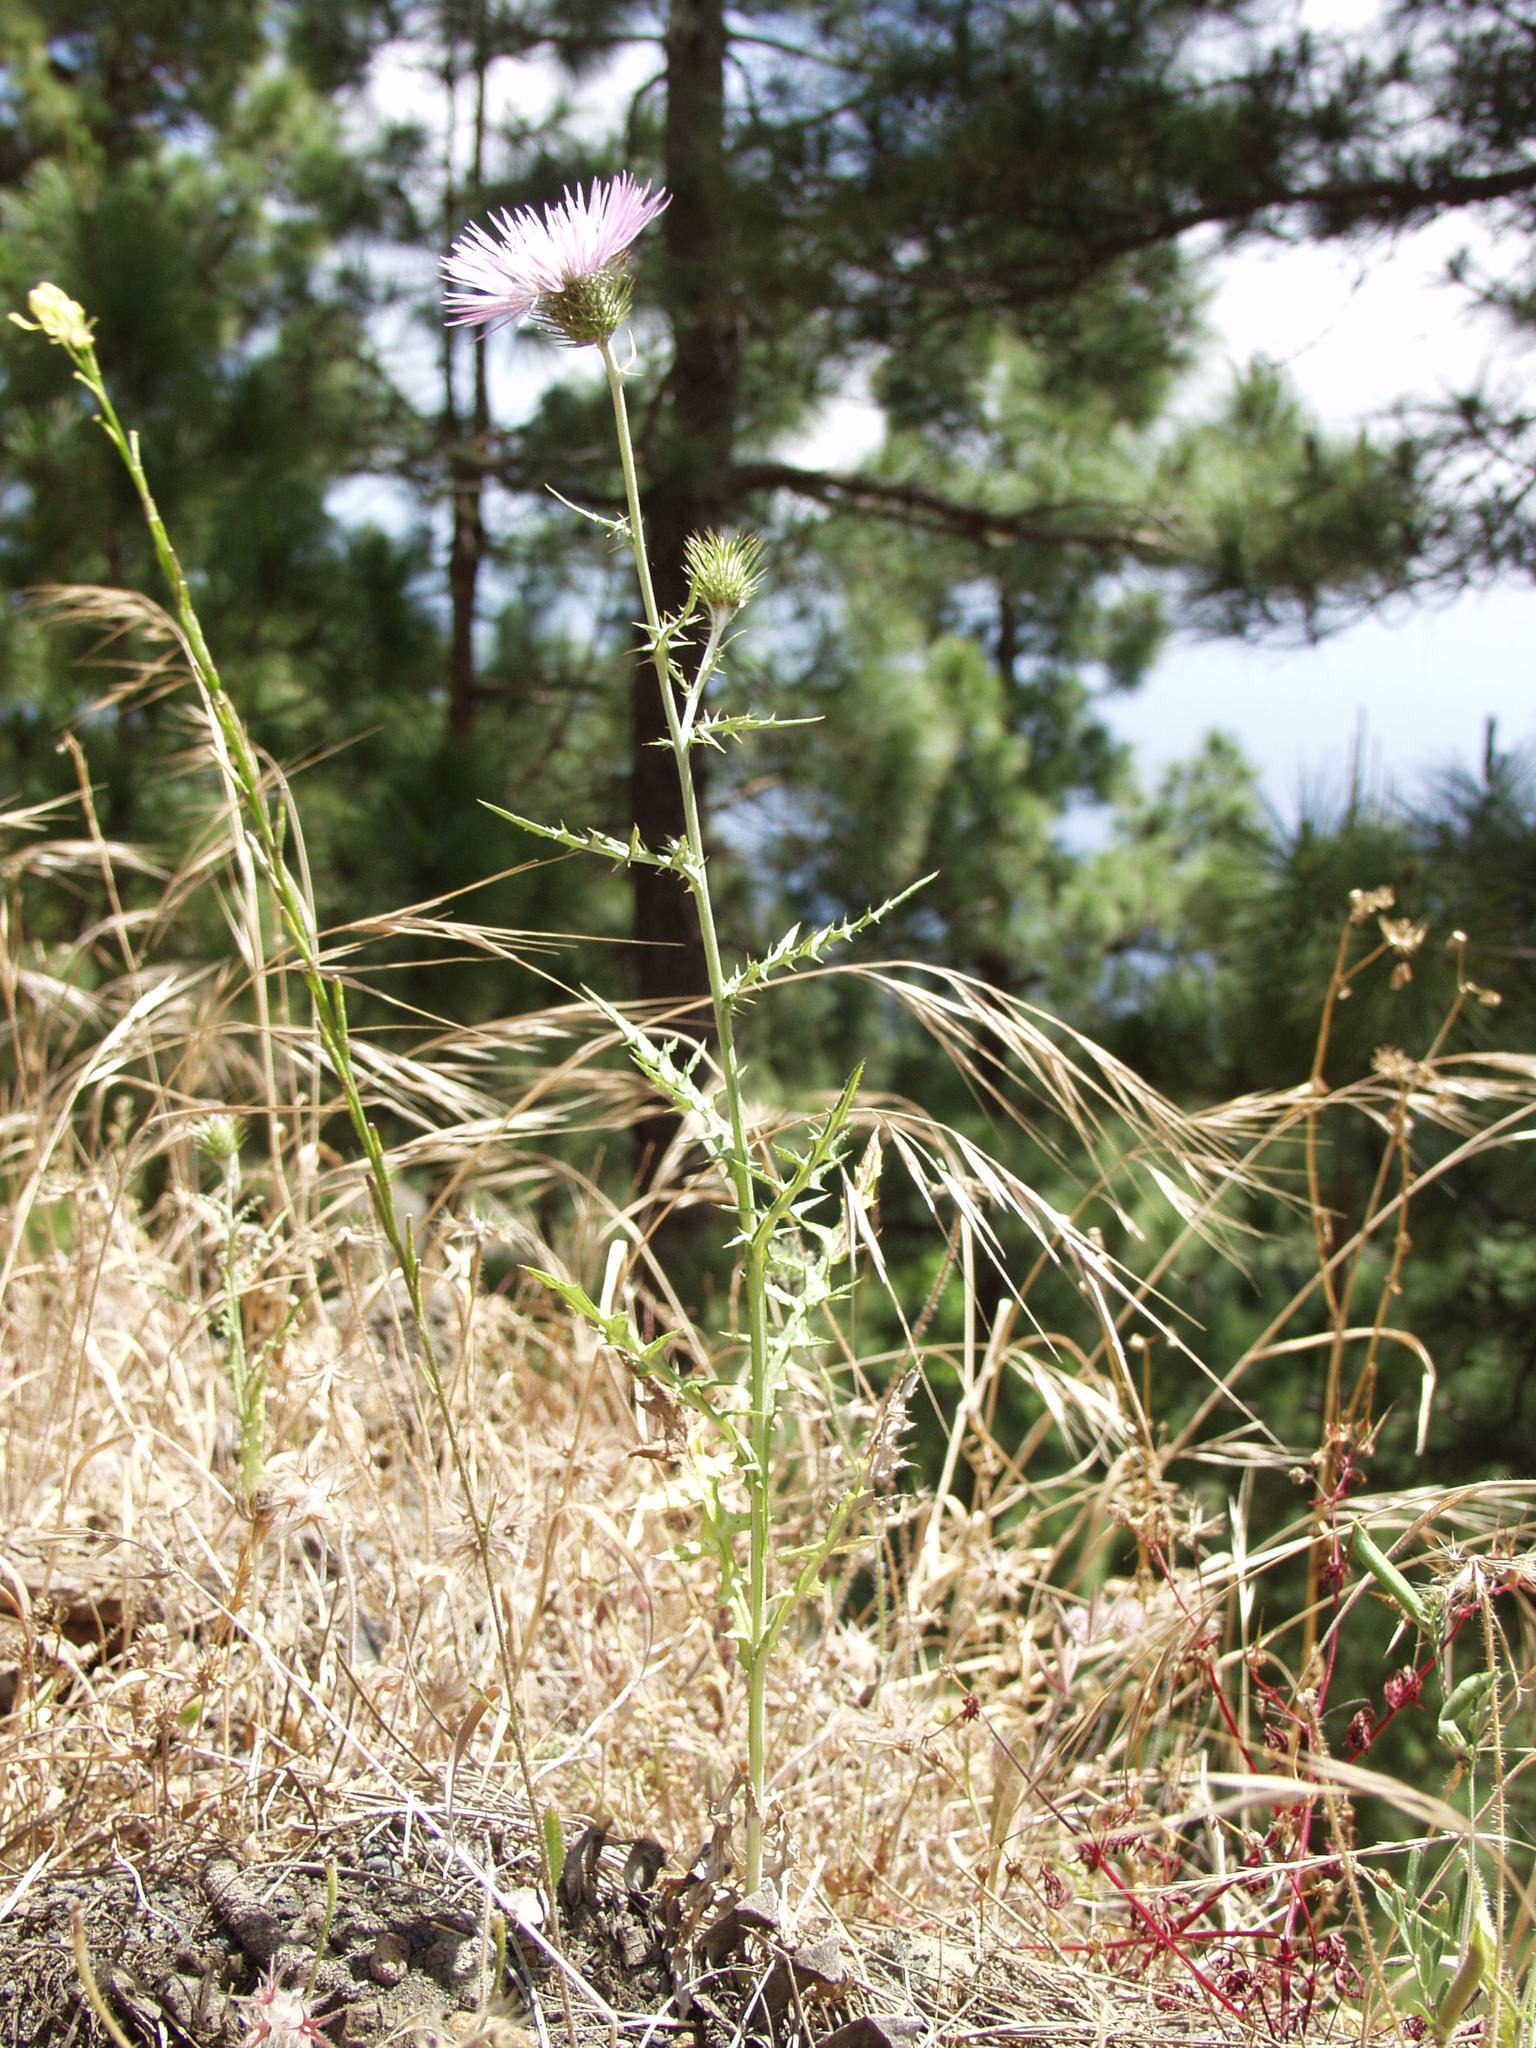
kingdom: Plantae
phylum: Tracheophyta
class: Magnoliopsida
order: Asterales
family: Asteraceae
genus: Galactites
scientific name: Galactites tomentosa
